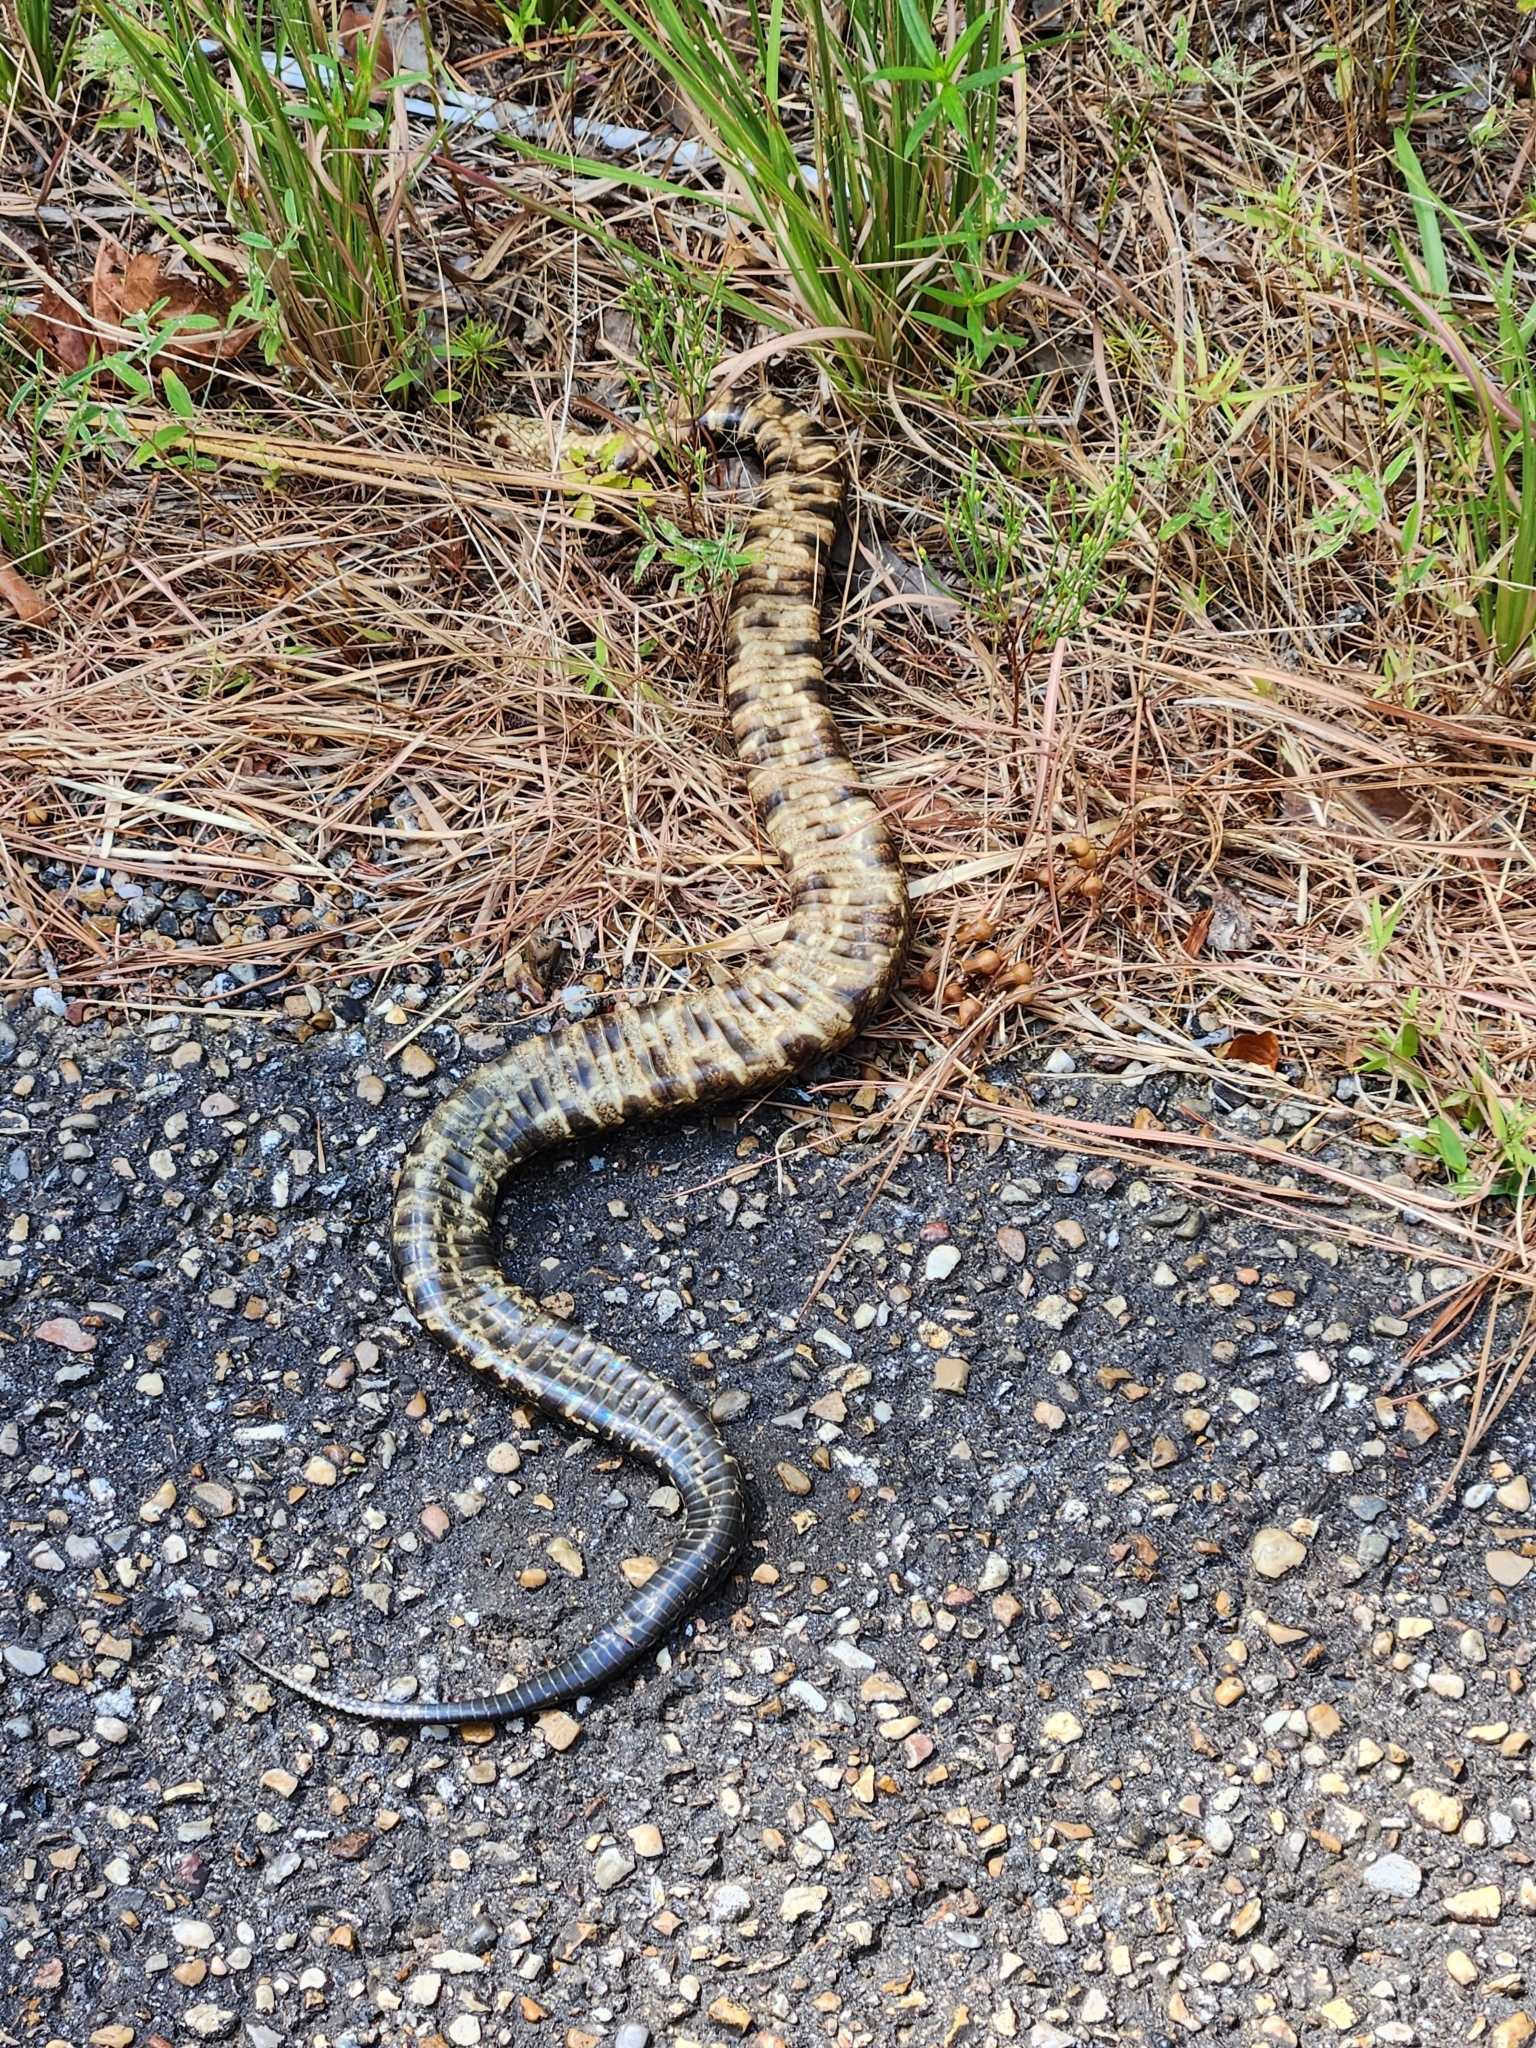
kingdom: Animalia
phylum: Chordata
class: Squamata
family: Viperidae
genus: Agkistrodon
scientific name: Agkistrodon piscivorus
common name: Cottonmouth
